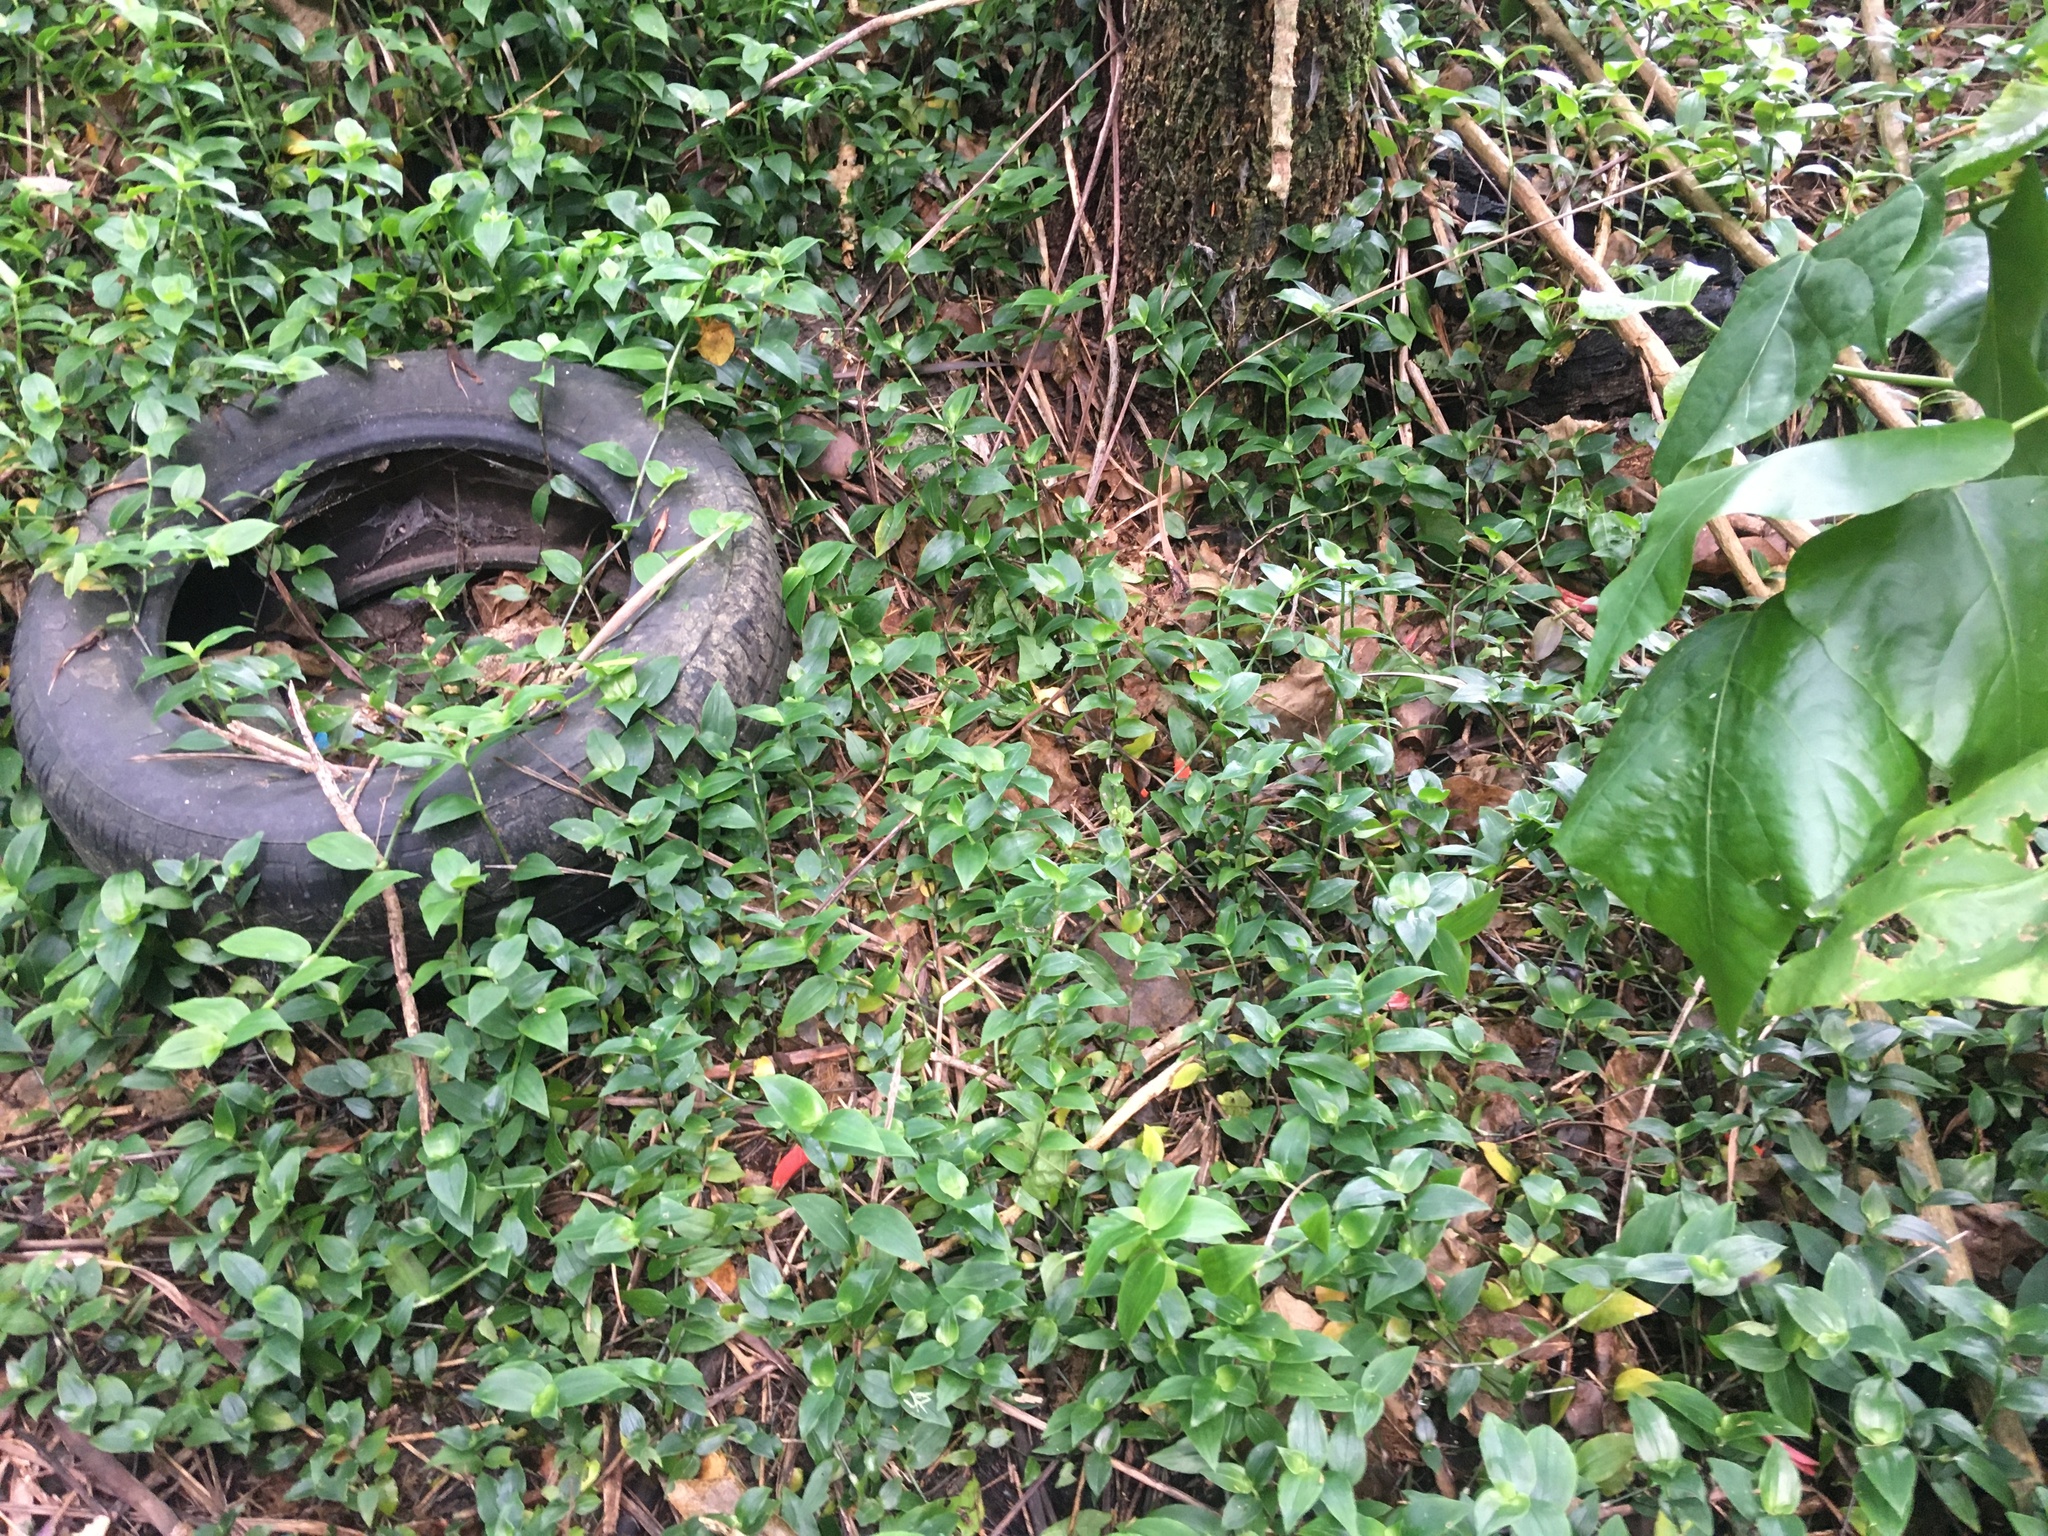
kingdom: Plantae
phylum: Tracheophyta
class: Liliopsida
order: Commelinales
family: Commelinaceae
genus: Tradescantia
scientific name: Tradescantia fluminensis
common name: Wandering-jew
